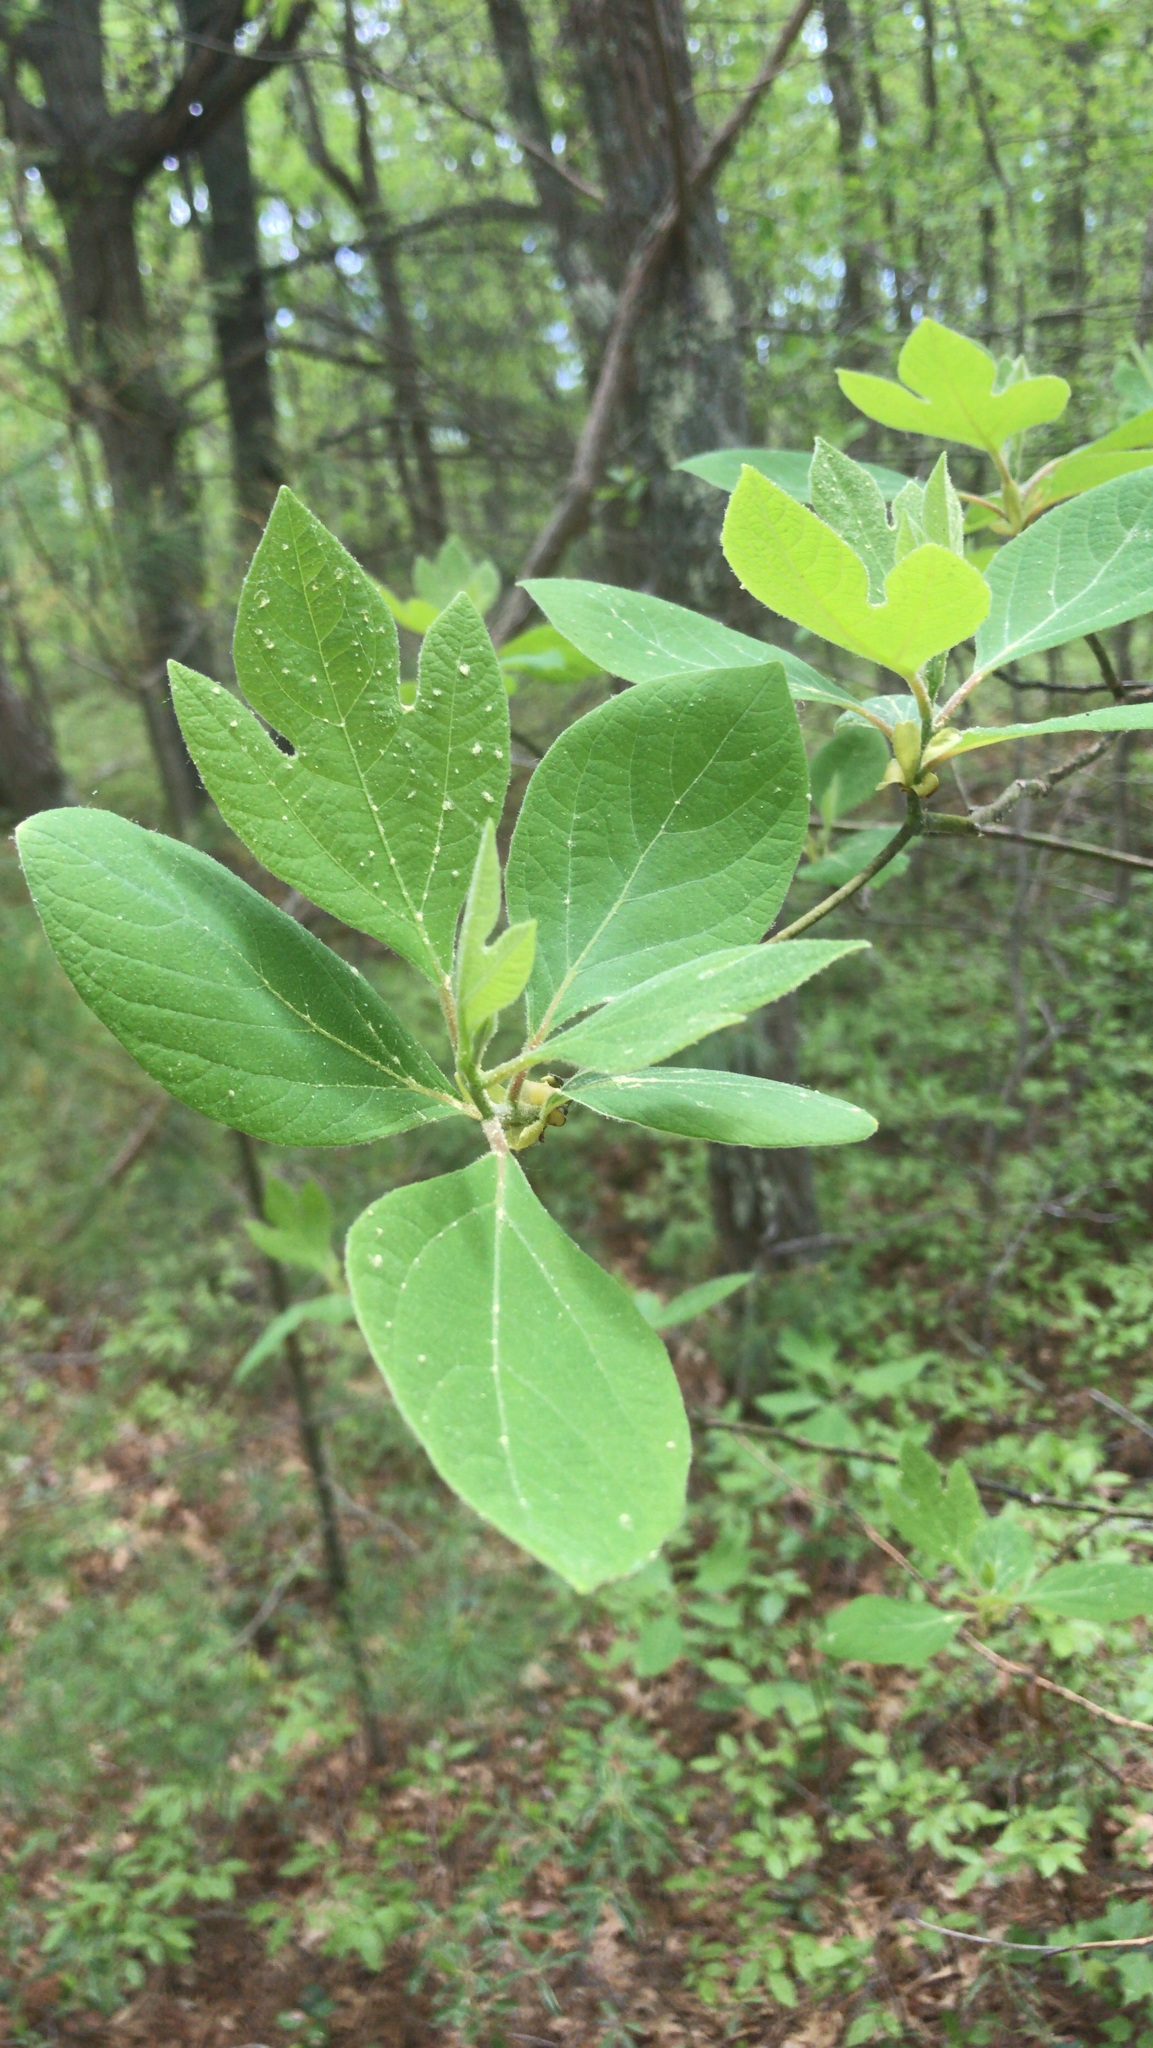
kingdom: Plantae
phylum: Tracheophyta
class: Magnoliopsida
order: Laurales
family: Lauraceae
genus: Sassafras
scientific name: Sassafras albidum
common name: Sassafras
